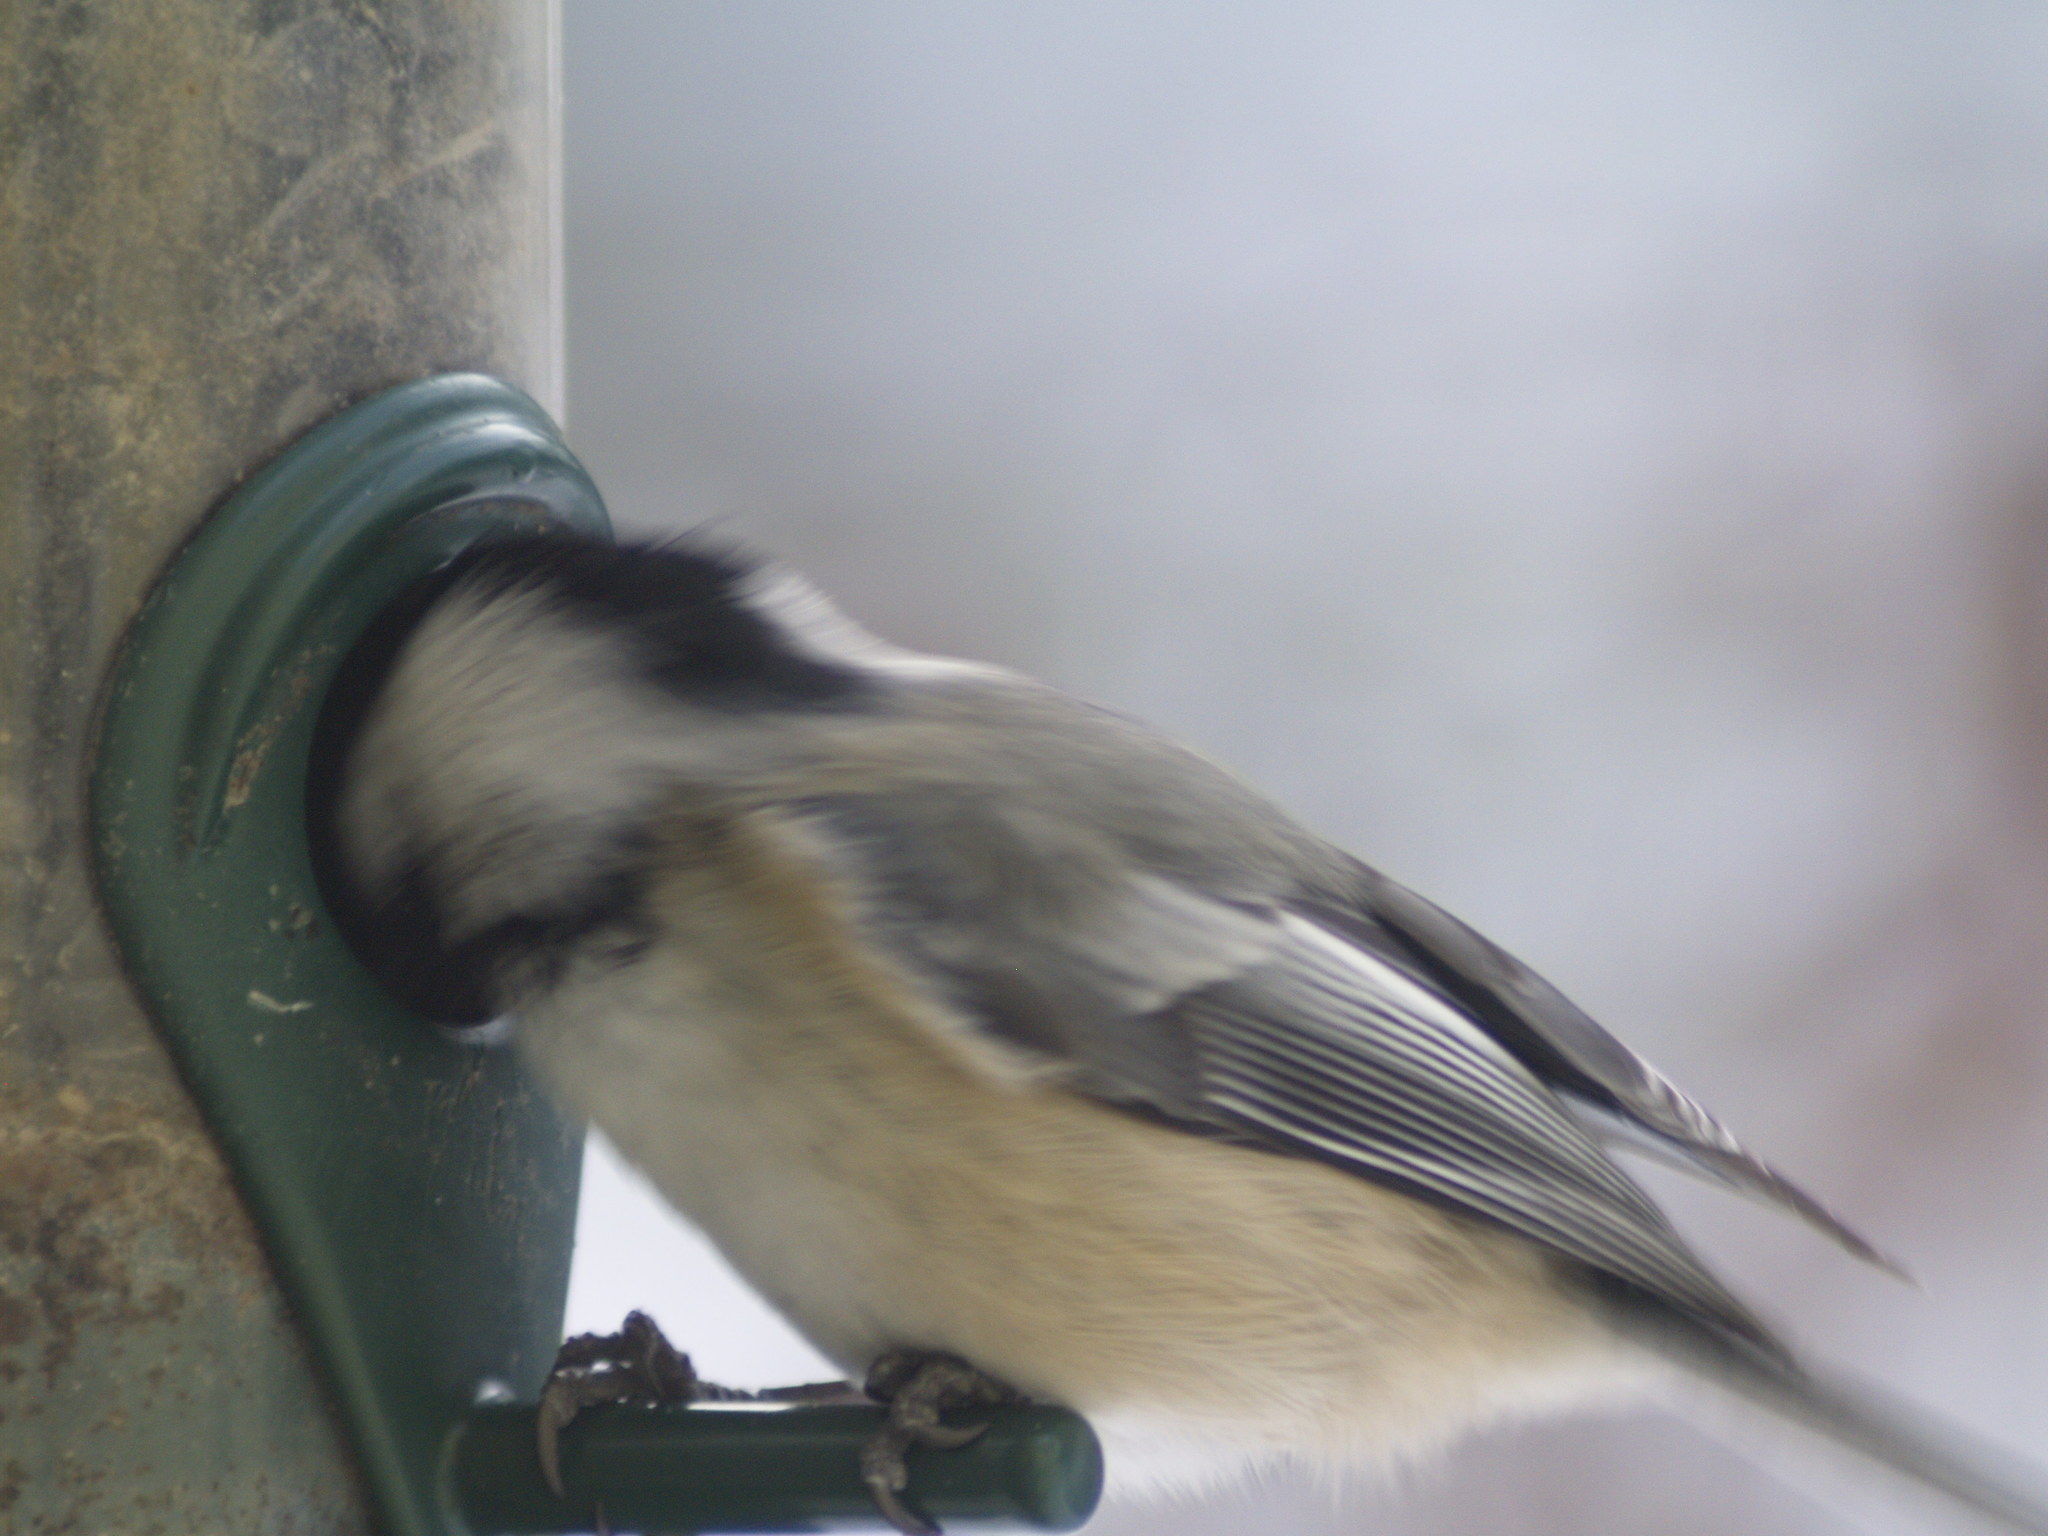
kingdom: Animalia
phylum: Chordata
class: Aves
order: Passeriformes
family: Paridae
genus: Poecile
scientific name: Poecile atricapillus
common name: Black-capped chickadee
